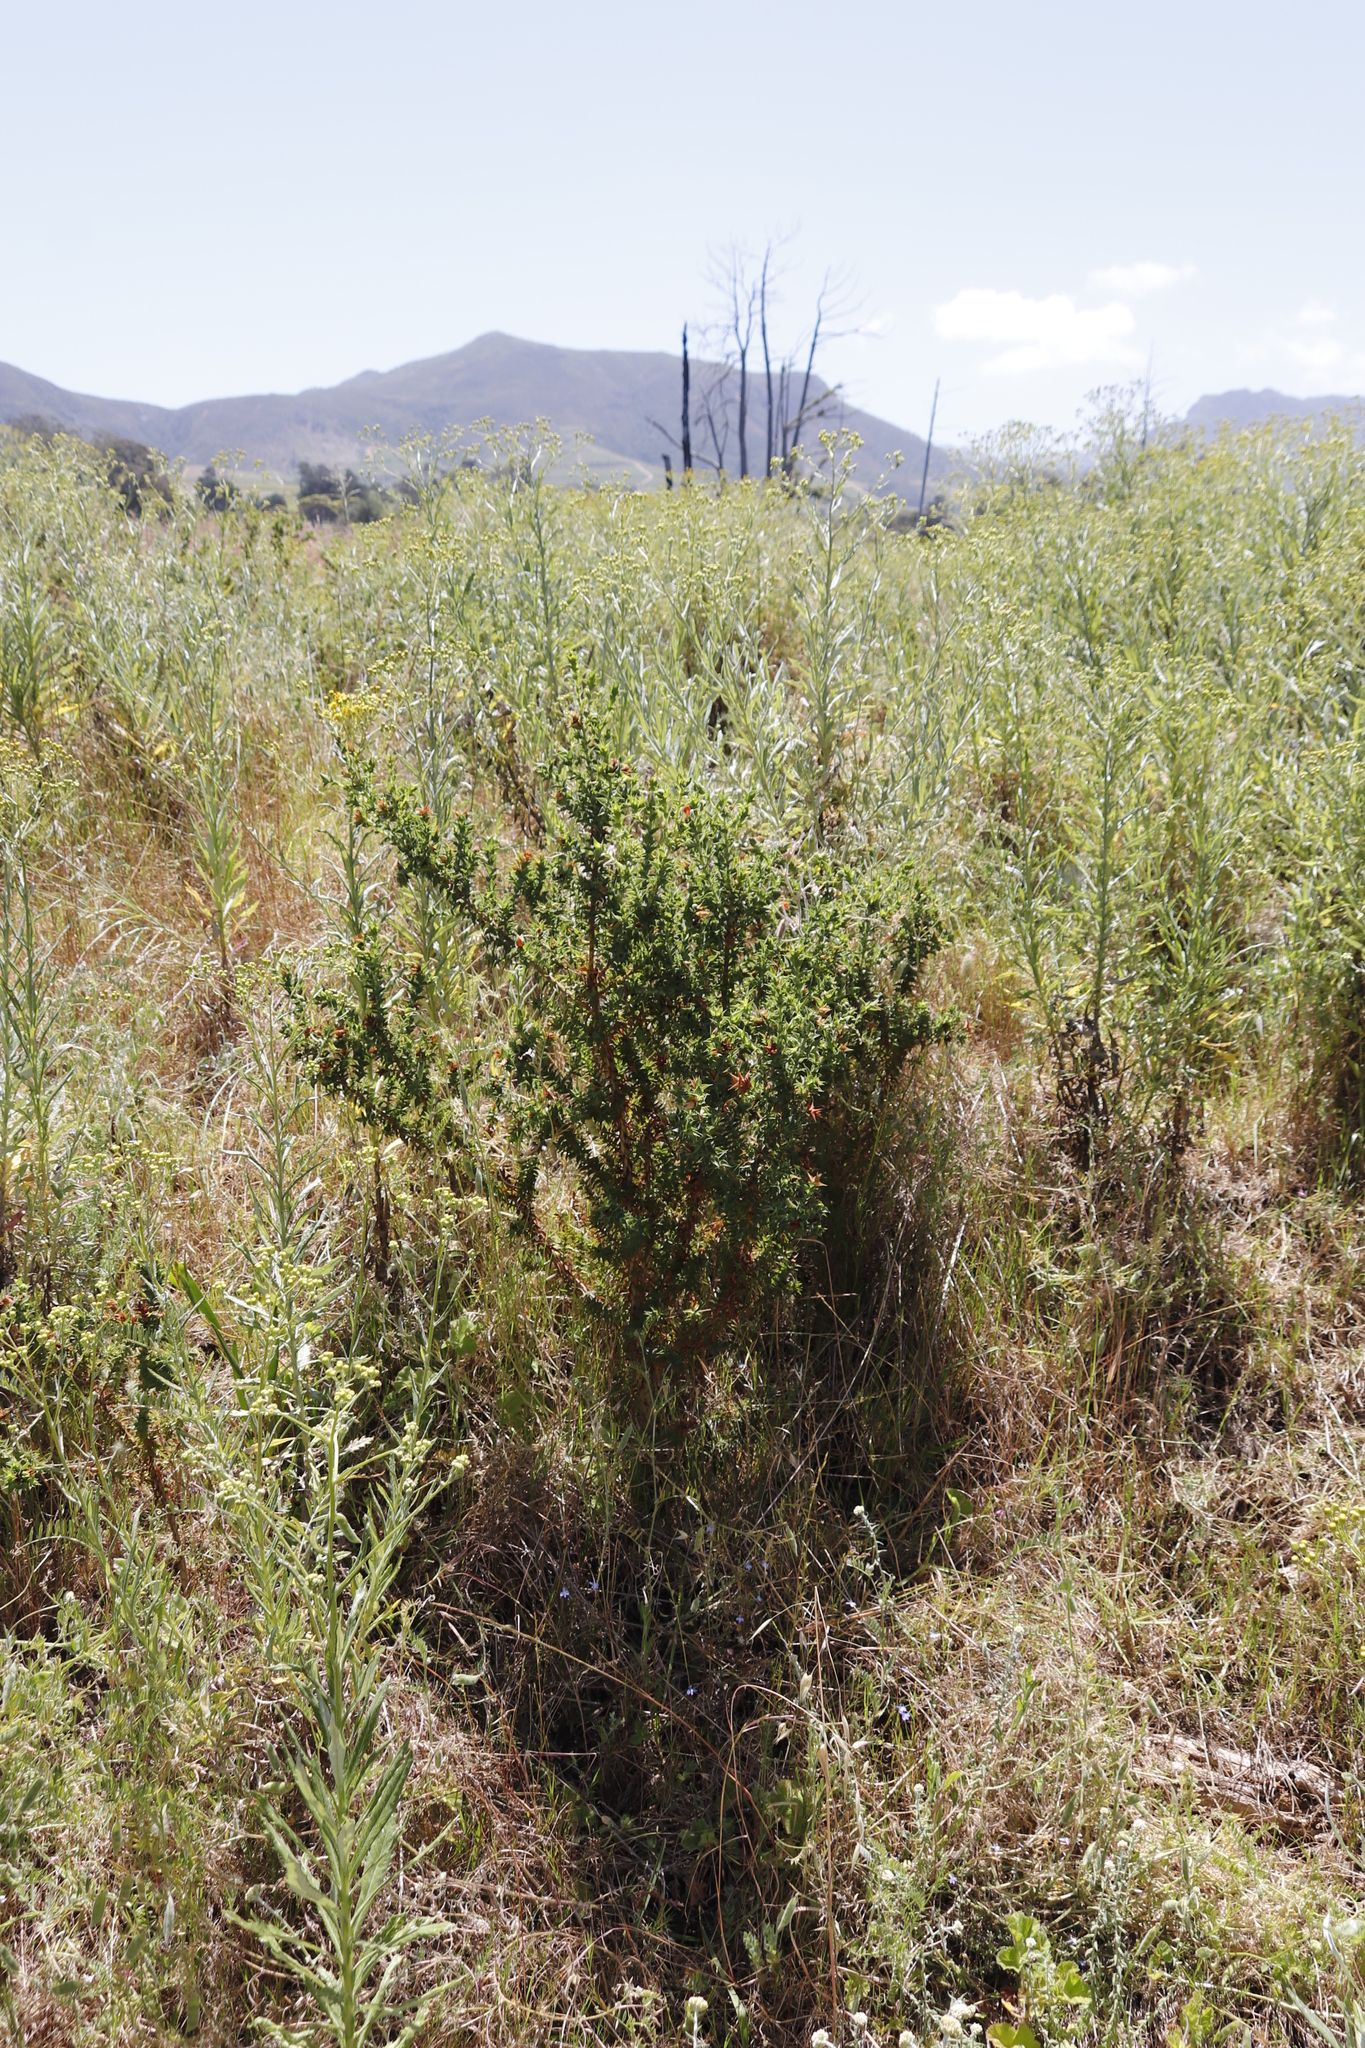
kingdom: Plantae
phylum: Tracheophyta
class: Magnoliopsida
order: Fabales
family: Fabaceae
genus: Aspalathus
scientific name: Aspalathus cordata
